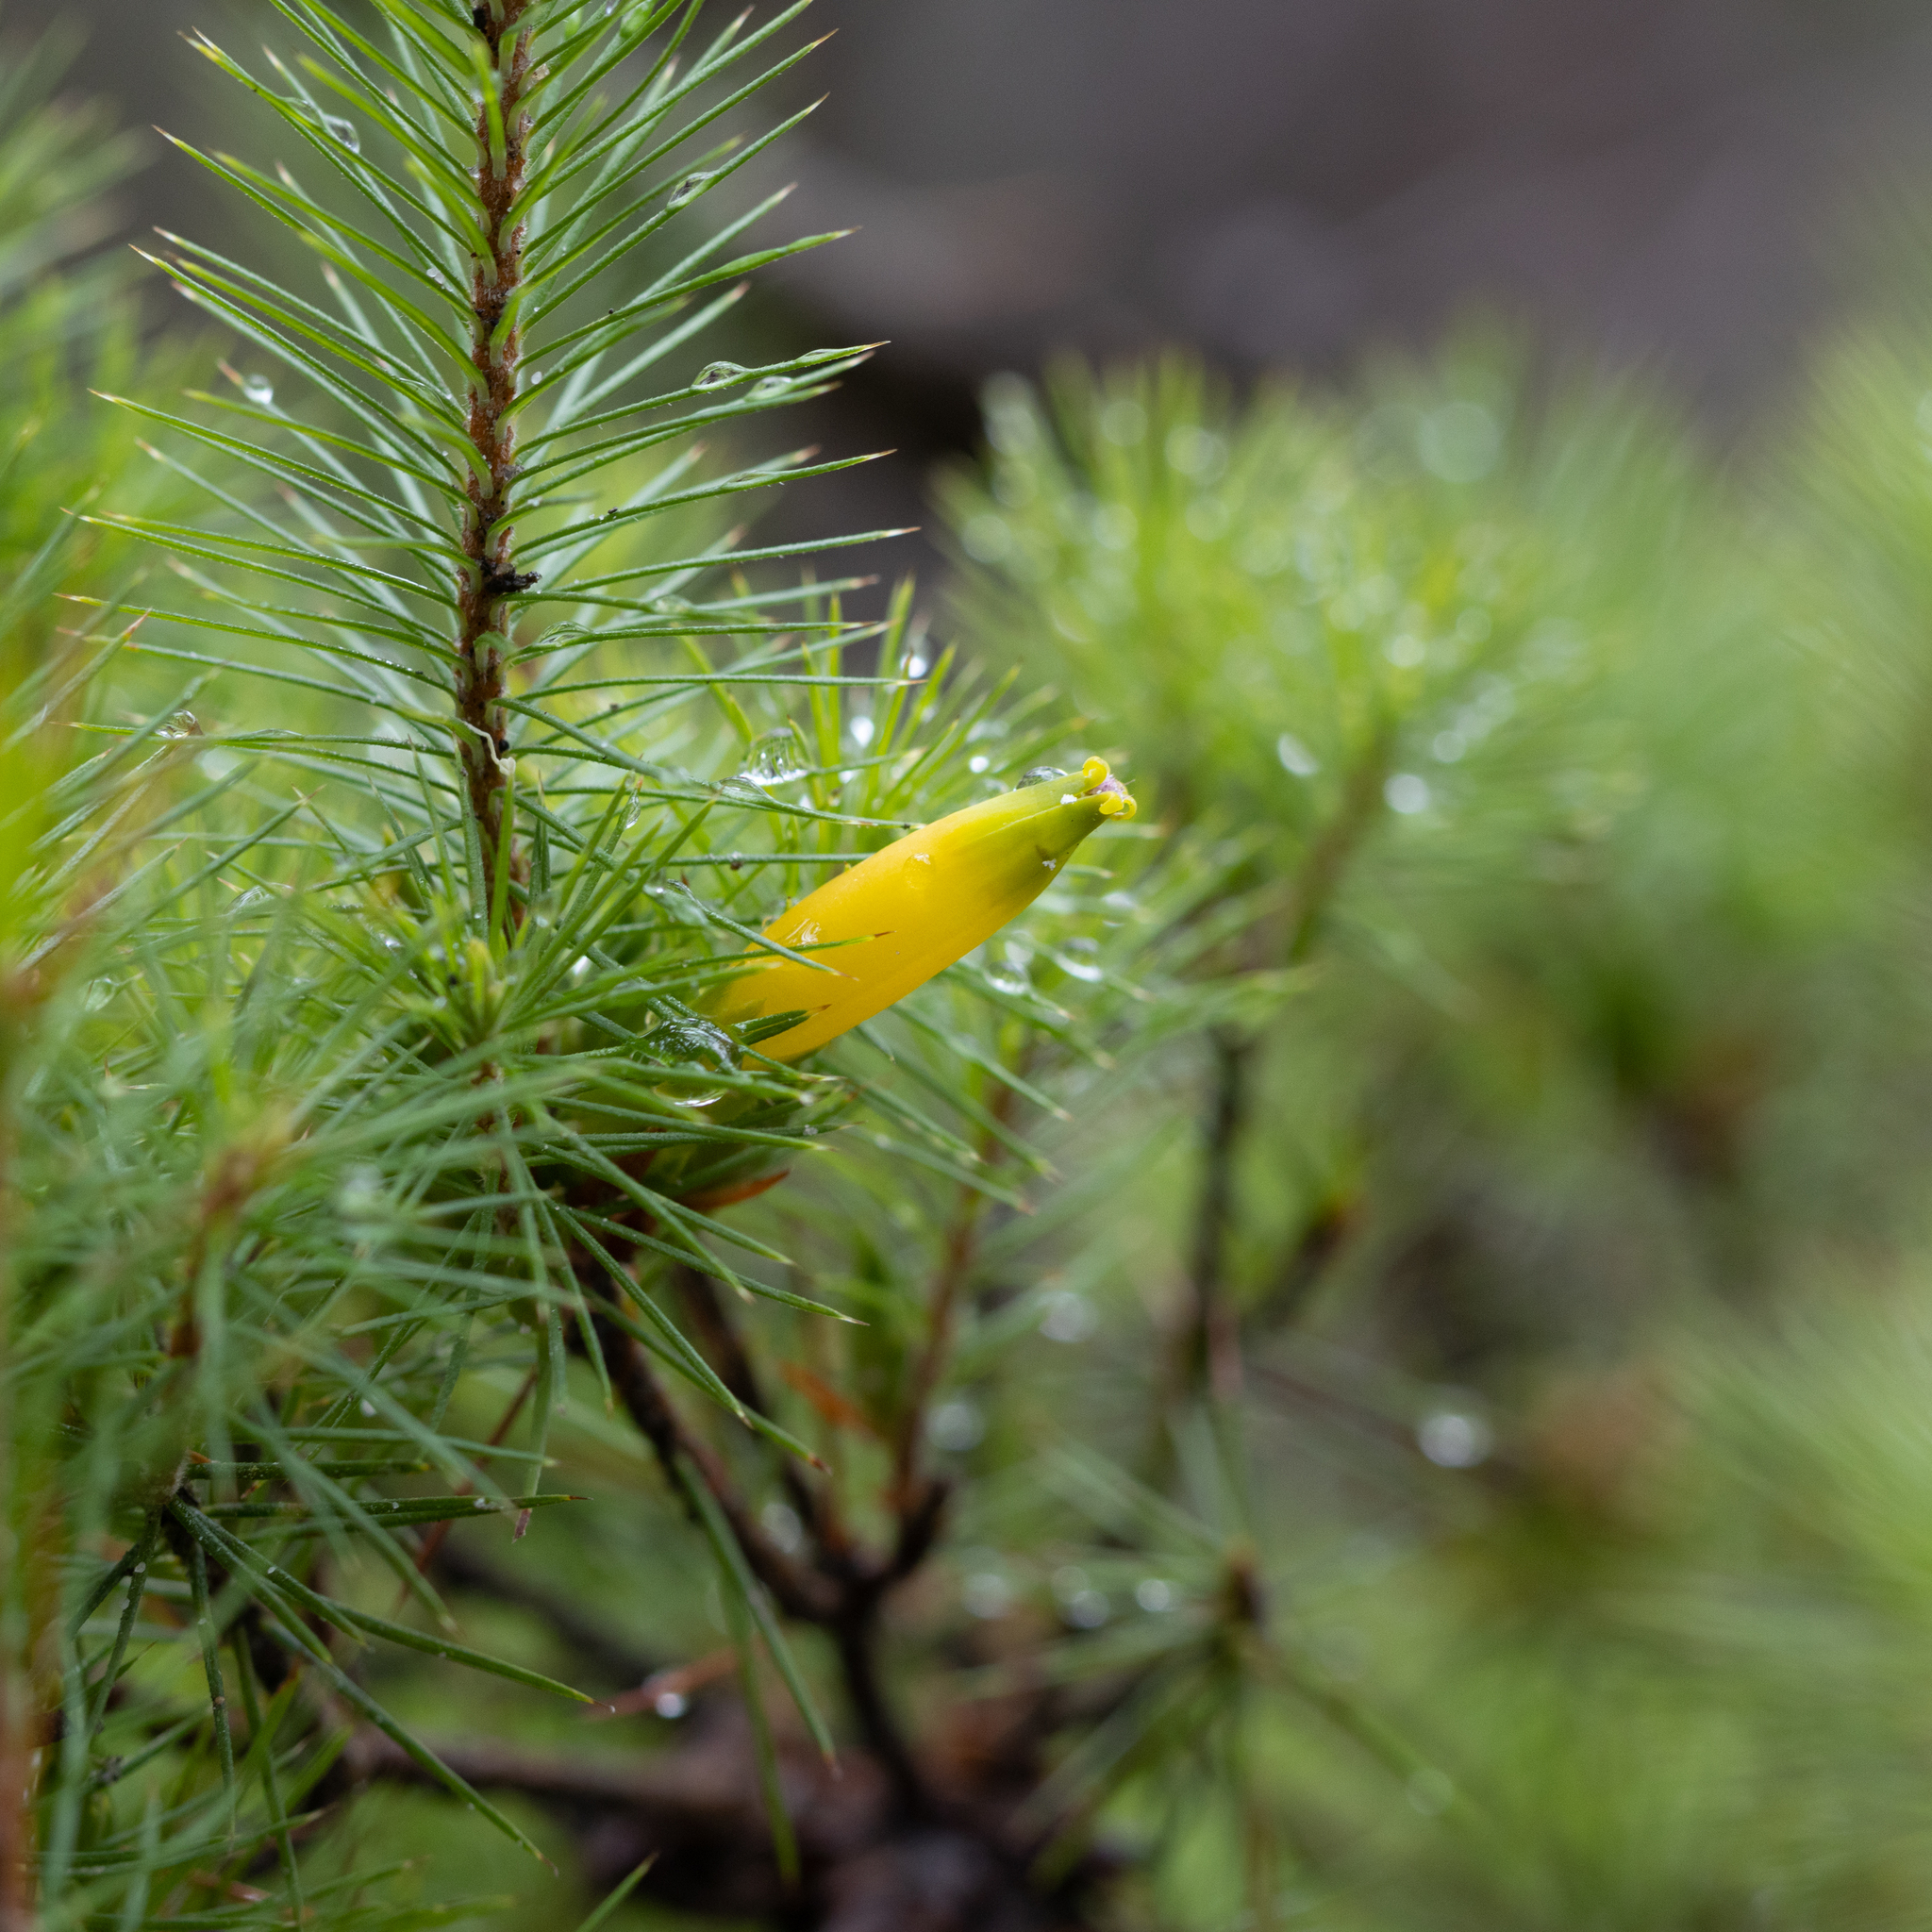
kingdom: Plantae
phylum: Tracheophyta
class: Magnoliopsida
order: Ericales
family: Ericaceae
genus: Stenanthera
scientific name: Stenanthera pinifolia
